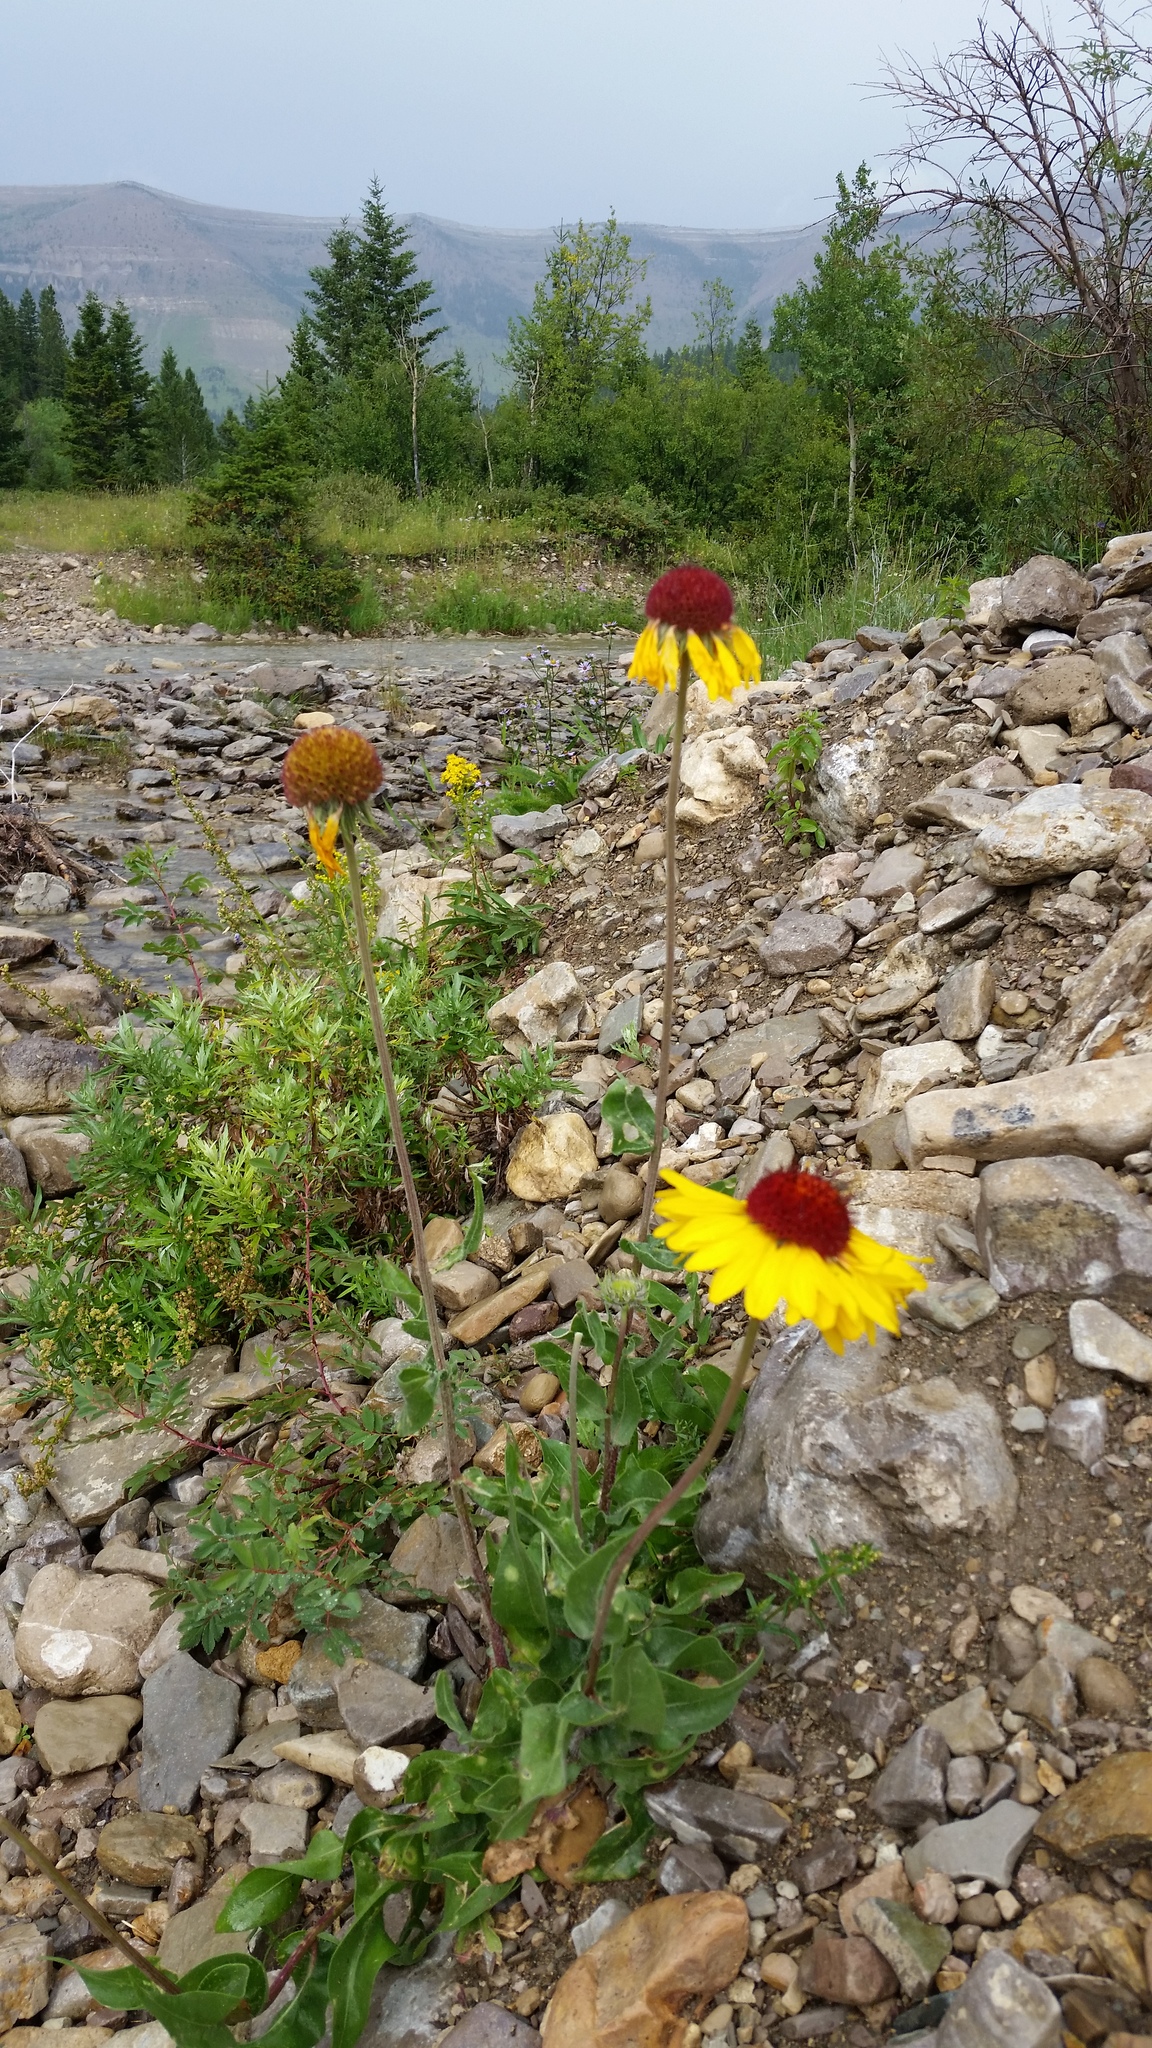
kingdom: Plantae
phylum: Tracheophyta
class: Magnoliopsida
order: Asterales
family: Asteraceae
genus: Gaillardia
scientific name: Gaillardia aristata
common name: Blanket-flower
